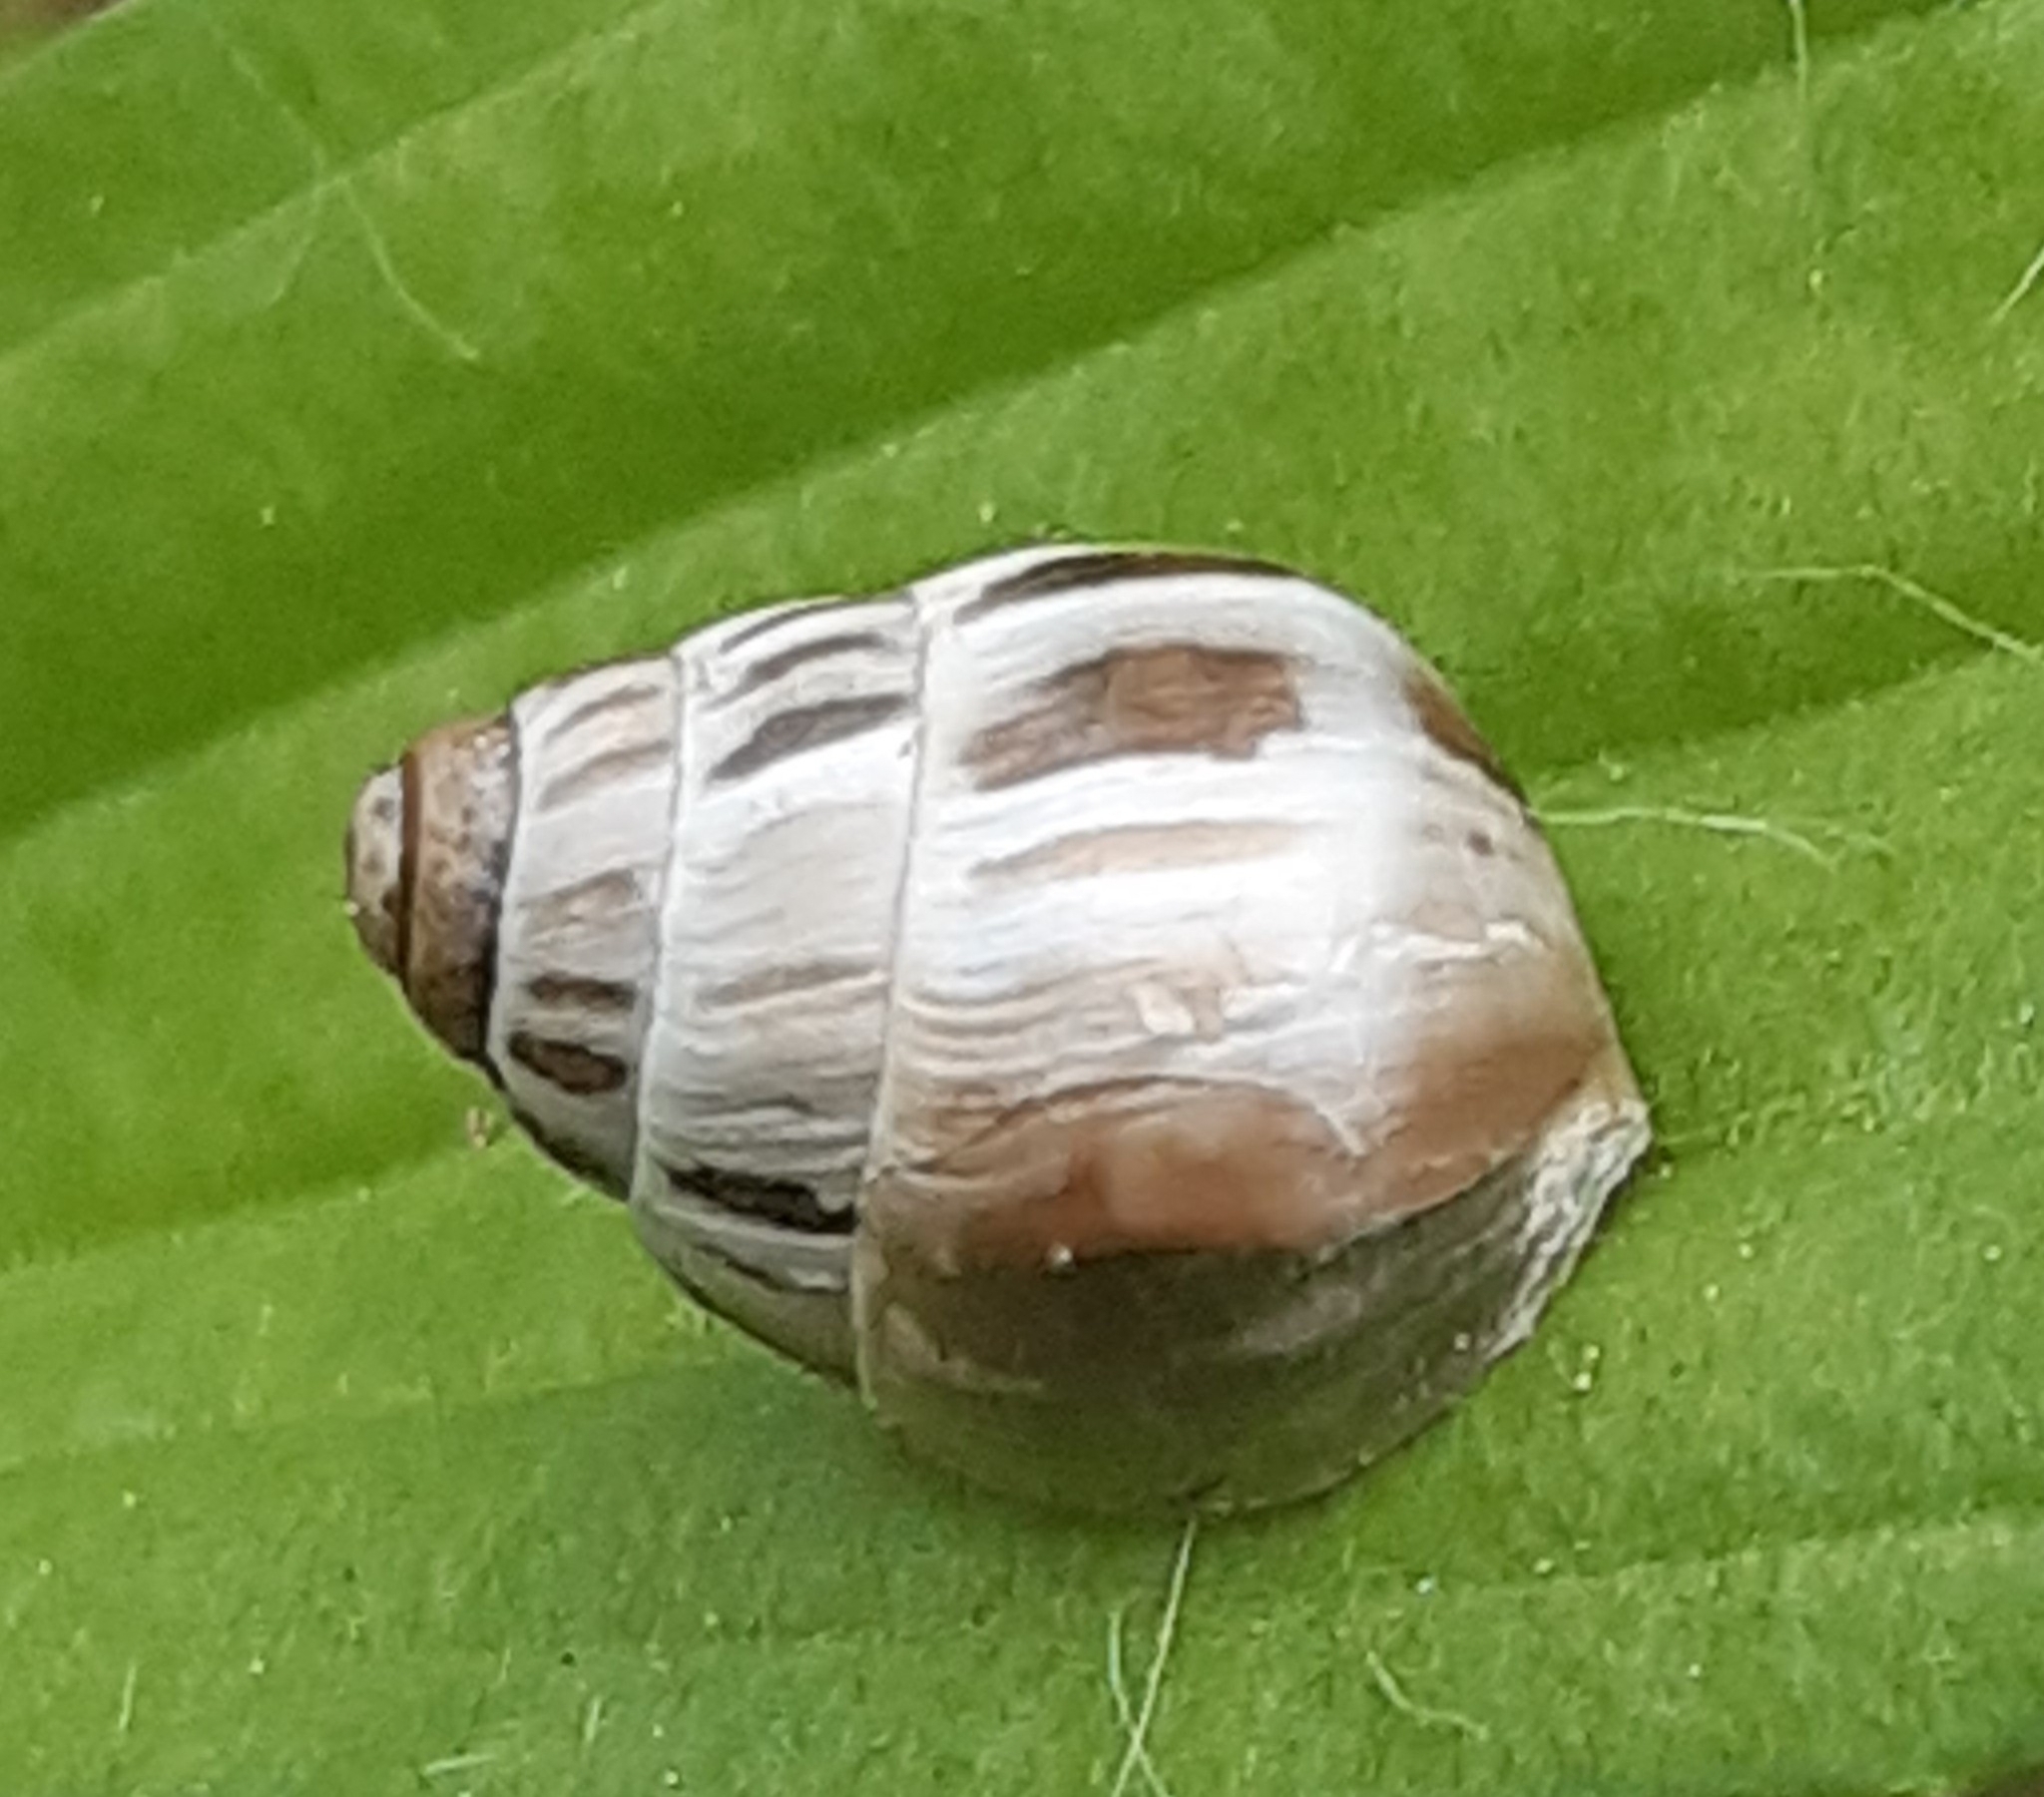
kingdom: Animalia
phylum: Mollusca
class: Gastropoda
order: Stylommatophora
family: Enidae
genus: Zebrina
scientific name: Zebrina detrita
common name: Large bulin
